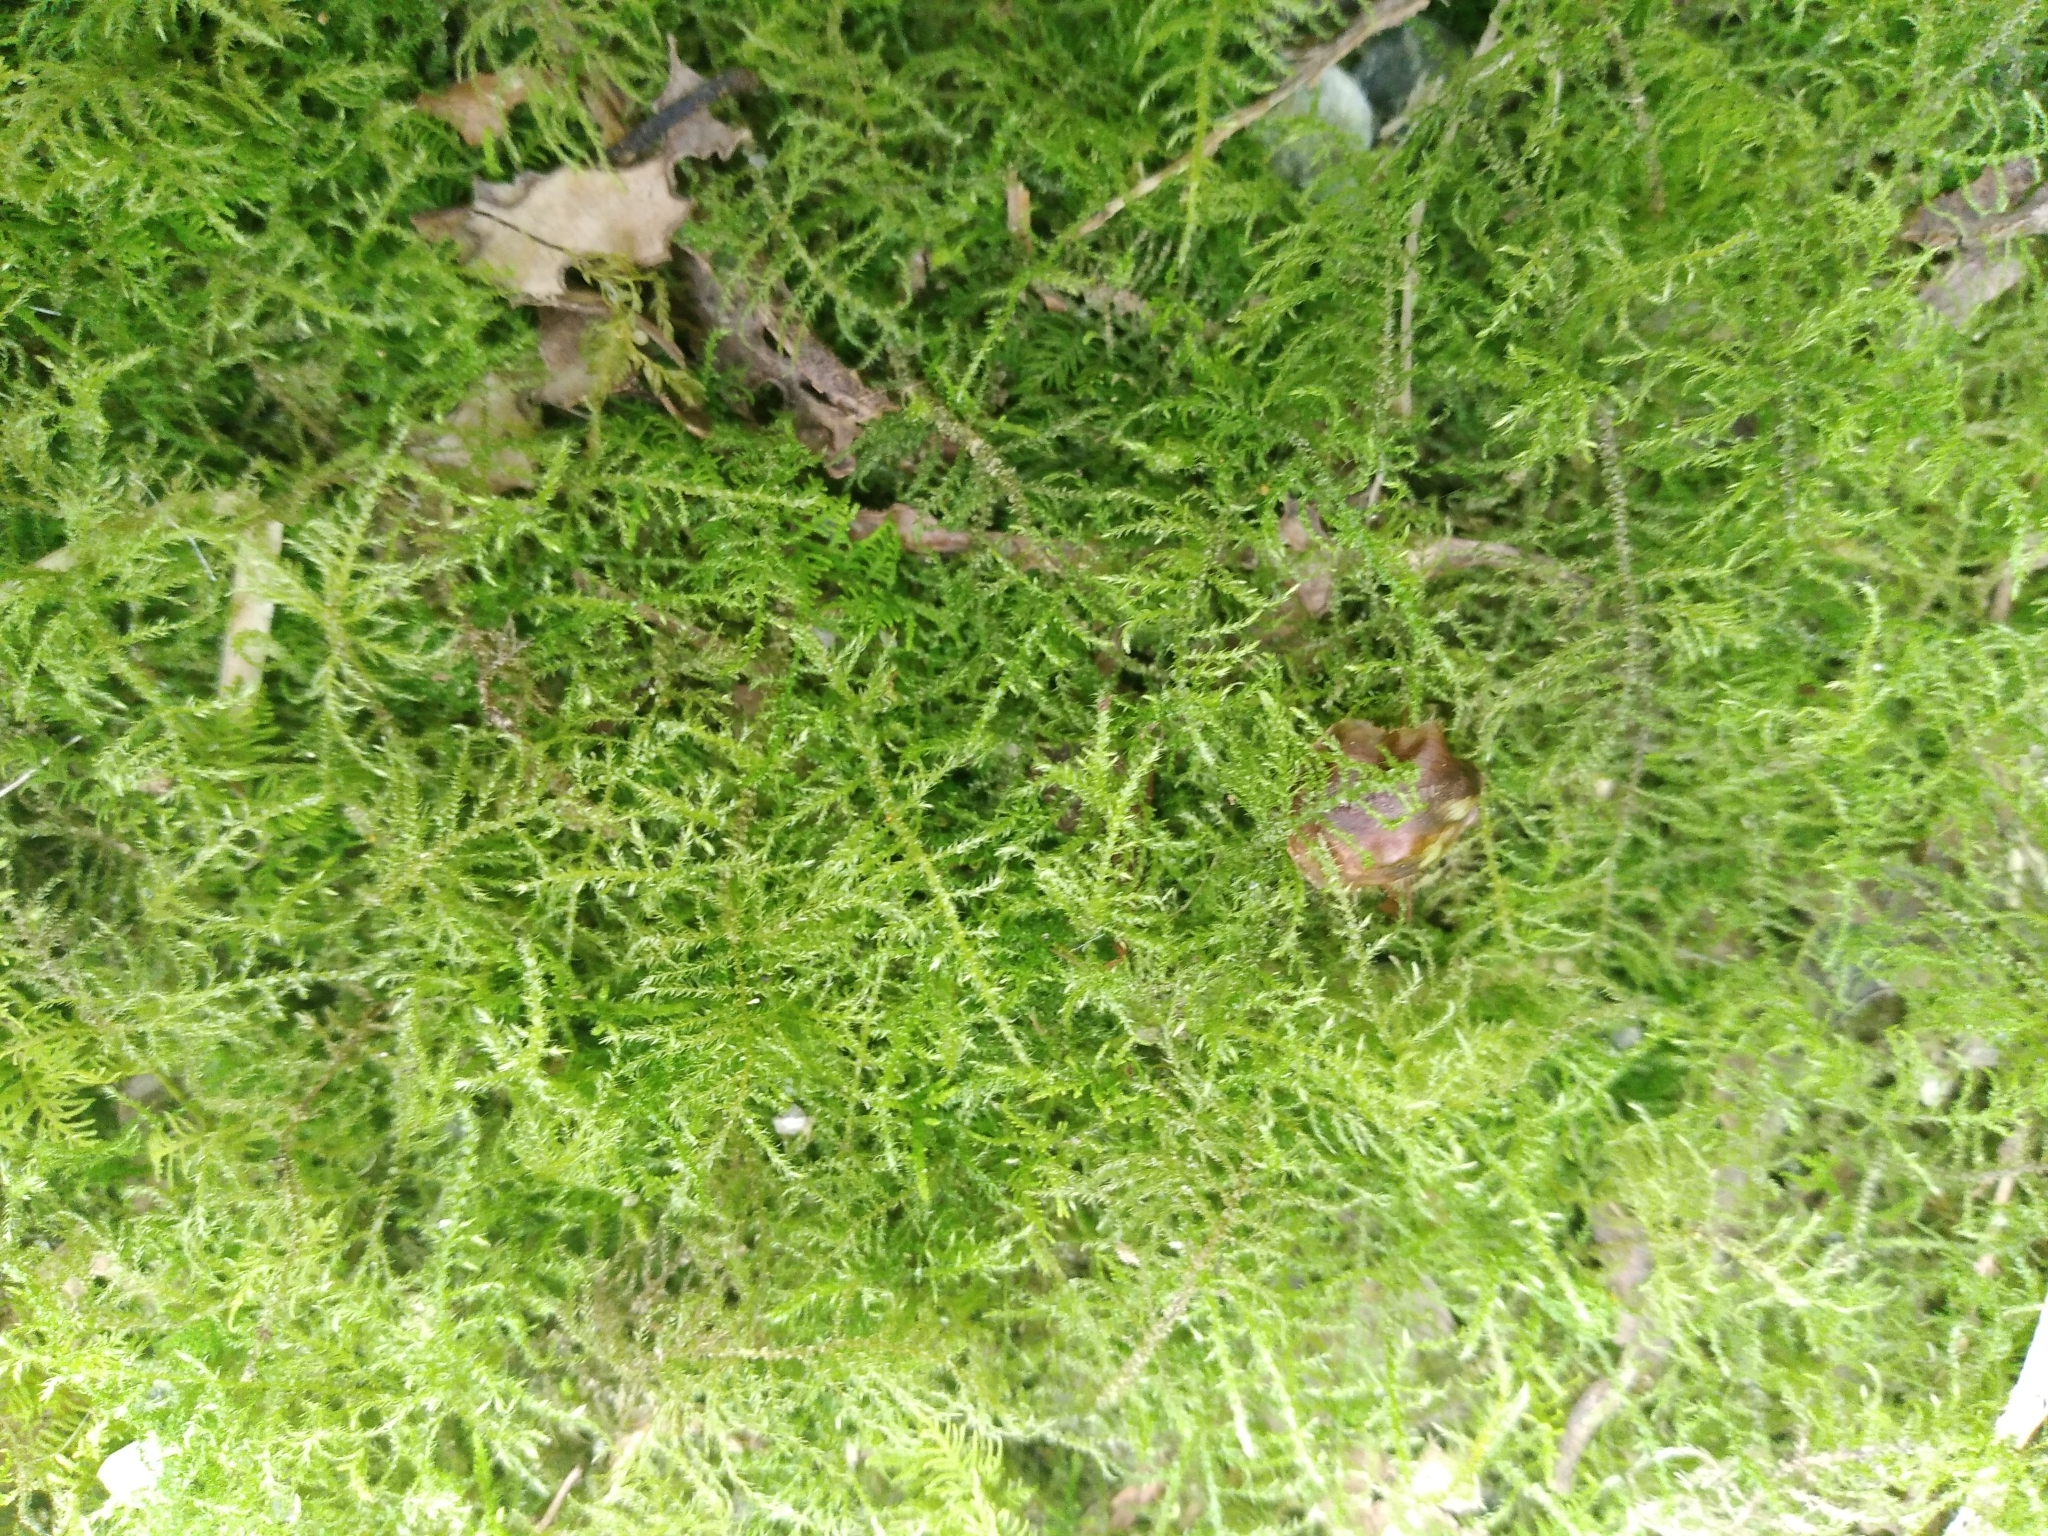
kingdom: Plantae
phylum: Bryophyta
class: Bryopsida
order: Hypnales
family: Brachytheciaceae
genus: Kindbergia
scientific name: Kindbergia praelonga
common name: Slender beaked moss
